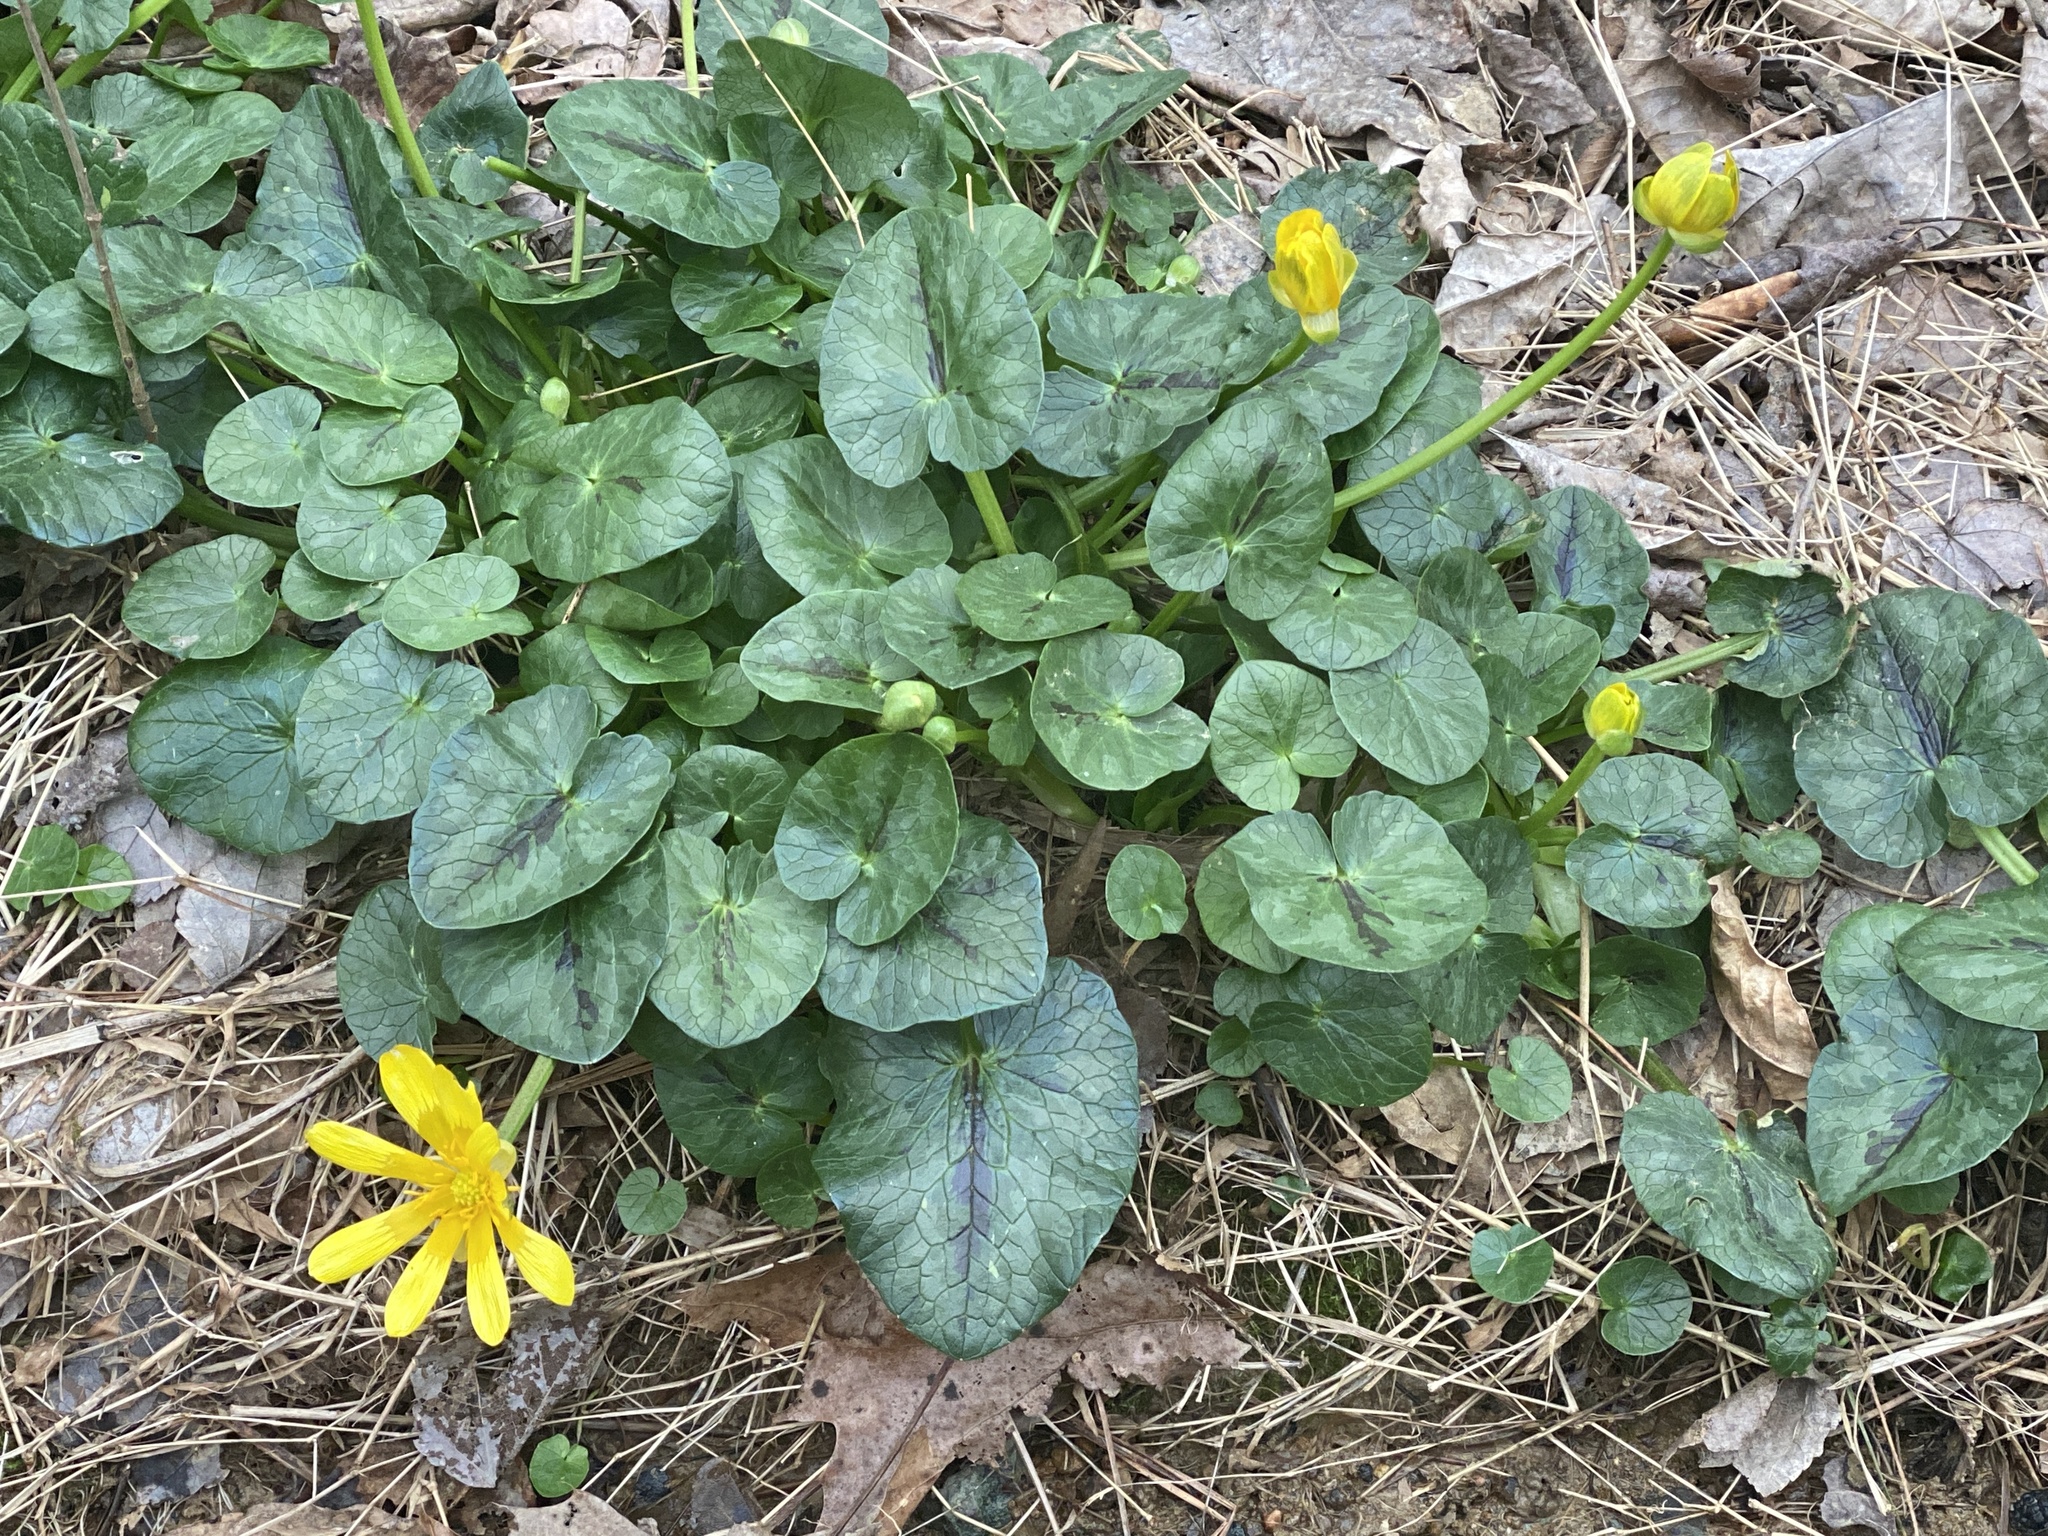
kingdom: Plantae
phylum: Tracheophyta
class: Magnoliopsida
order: Ranunculales
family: Ranunculaceae
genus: Ficaria
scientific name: Ficaria verna
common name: Lesser celandine
